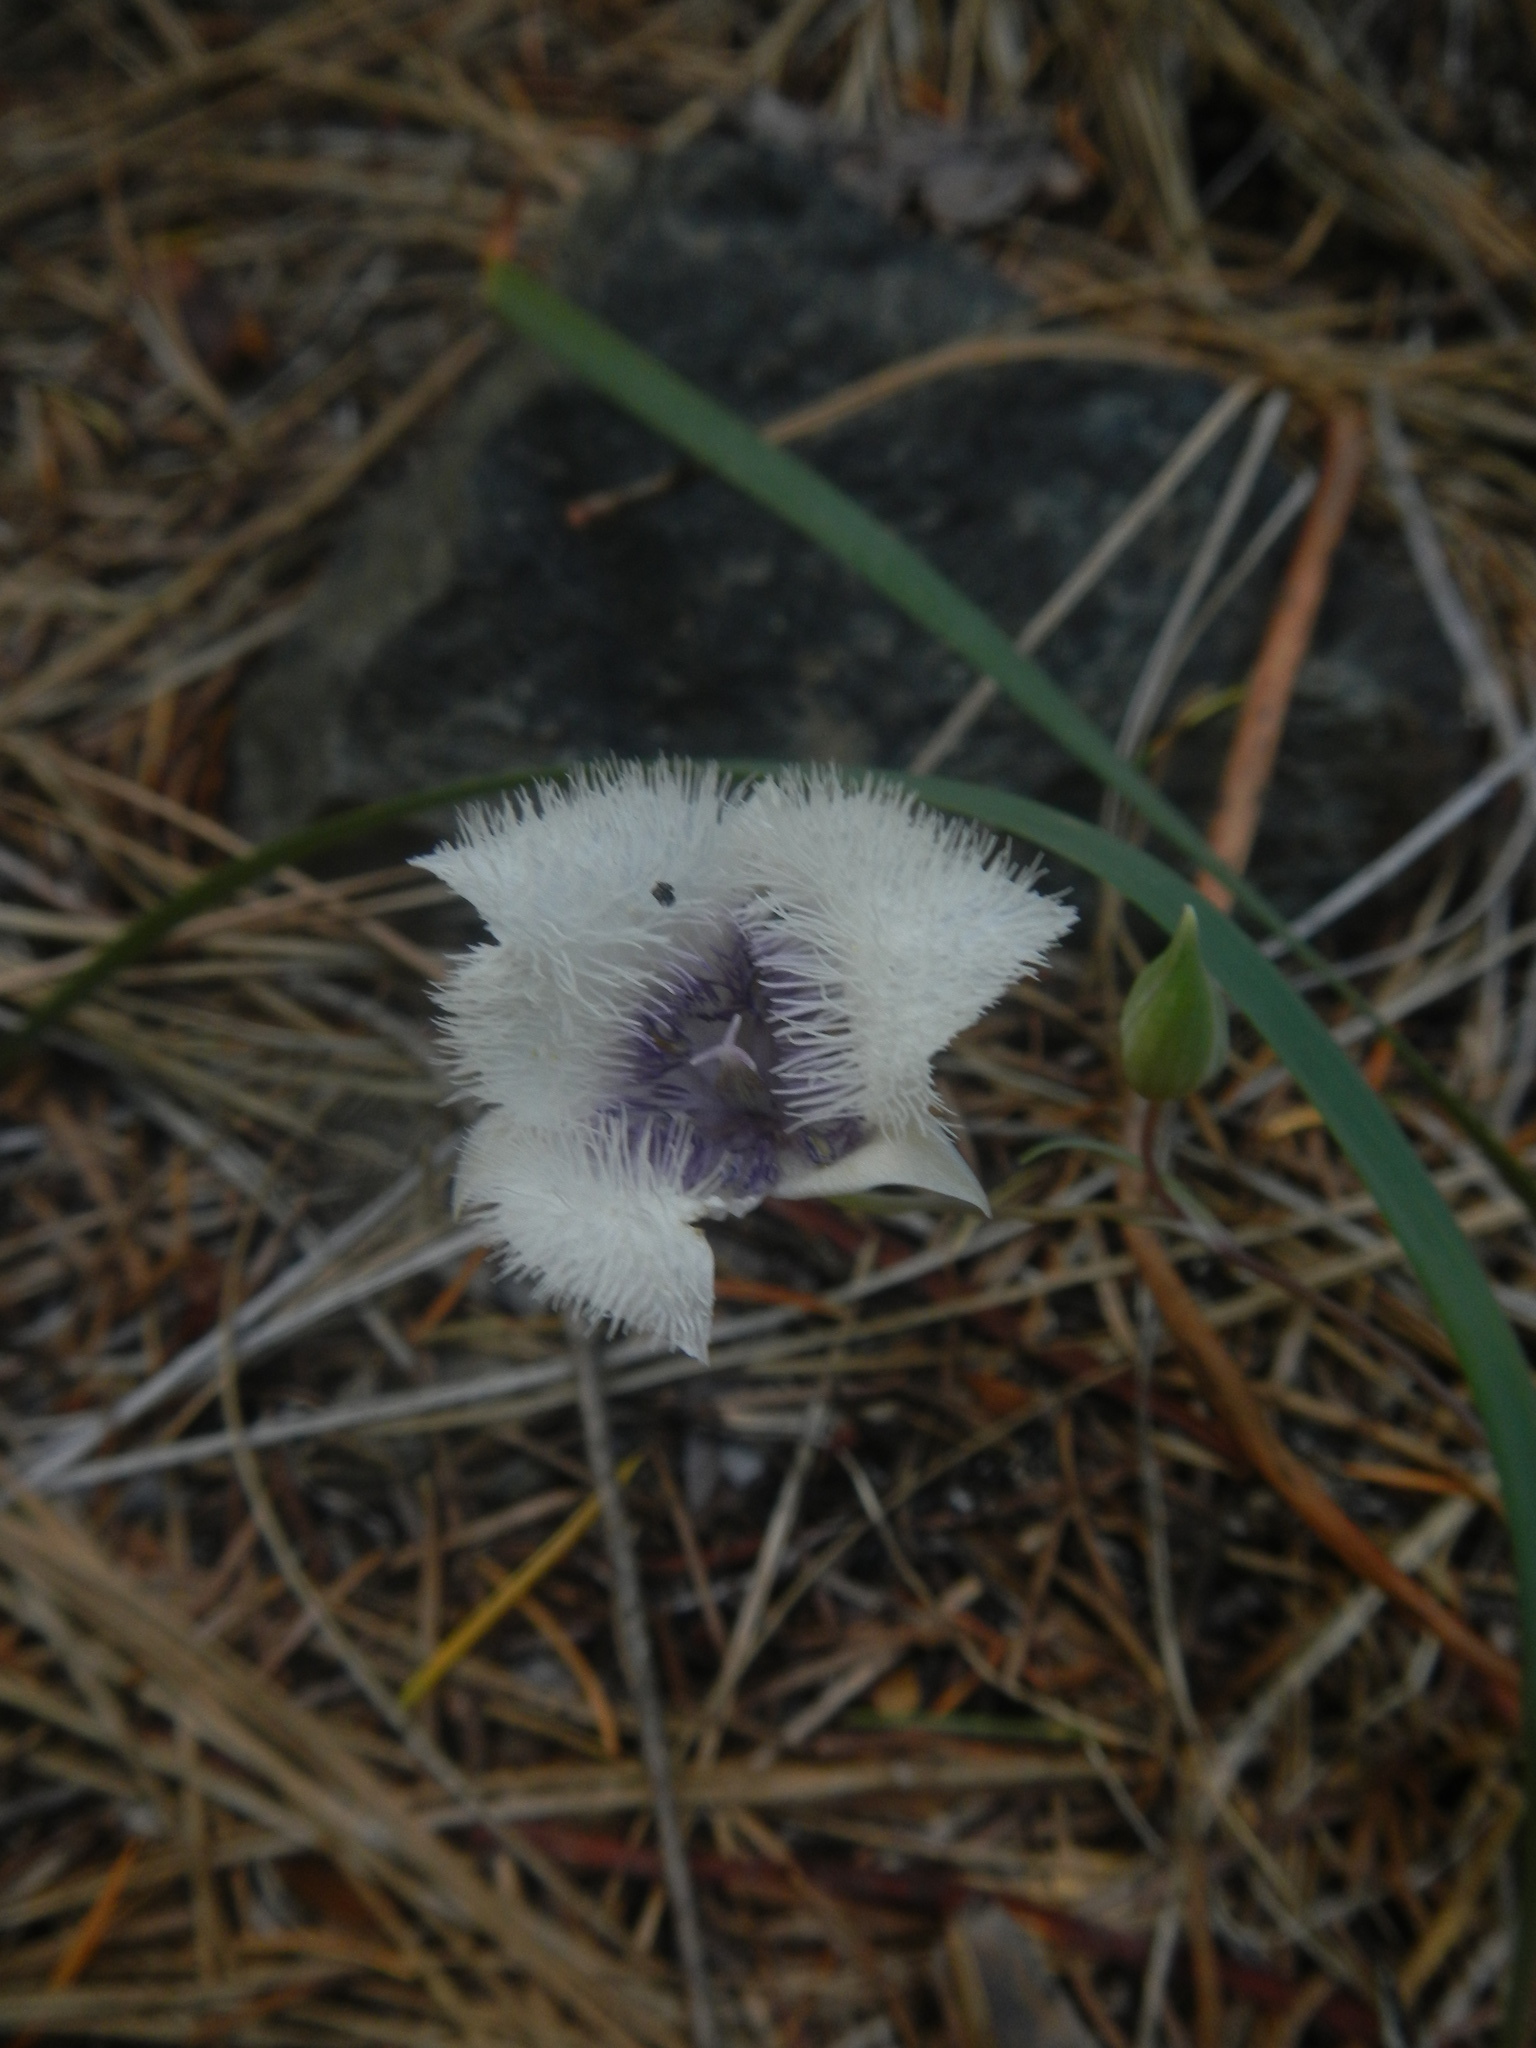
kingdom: Plantae
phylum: Tracheophyta
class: Liliopsida
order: Liliales
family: Liliaceae
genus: Calochortus
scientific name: Calochortus tolmiei
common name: Pussy-ears
